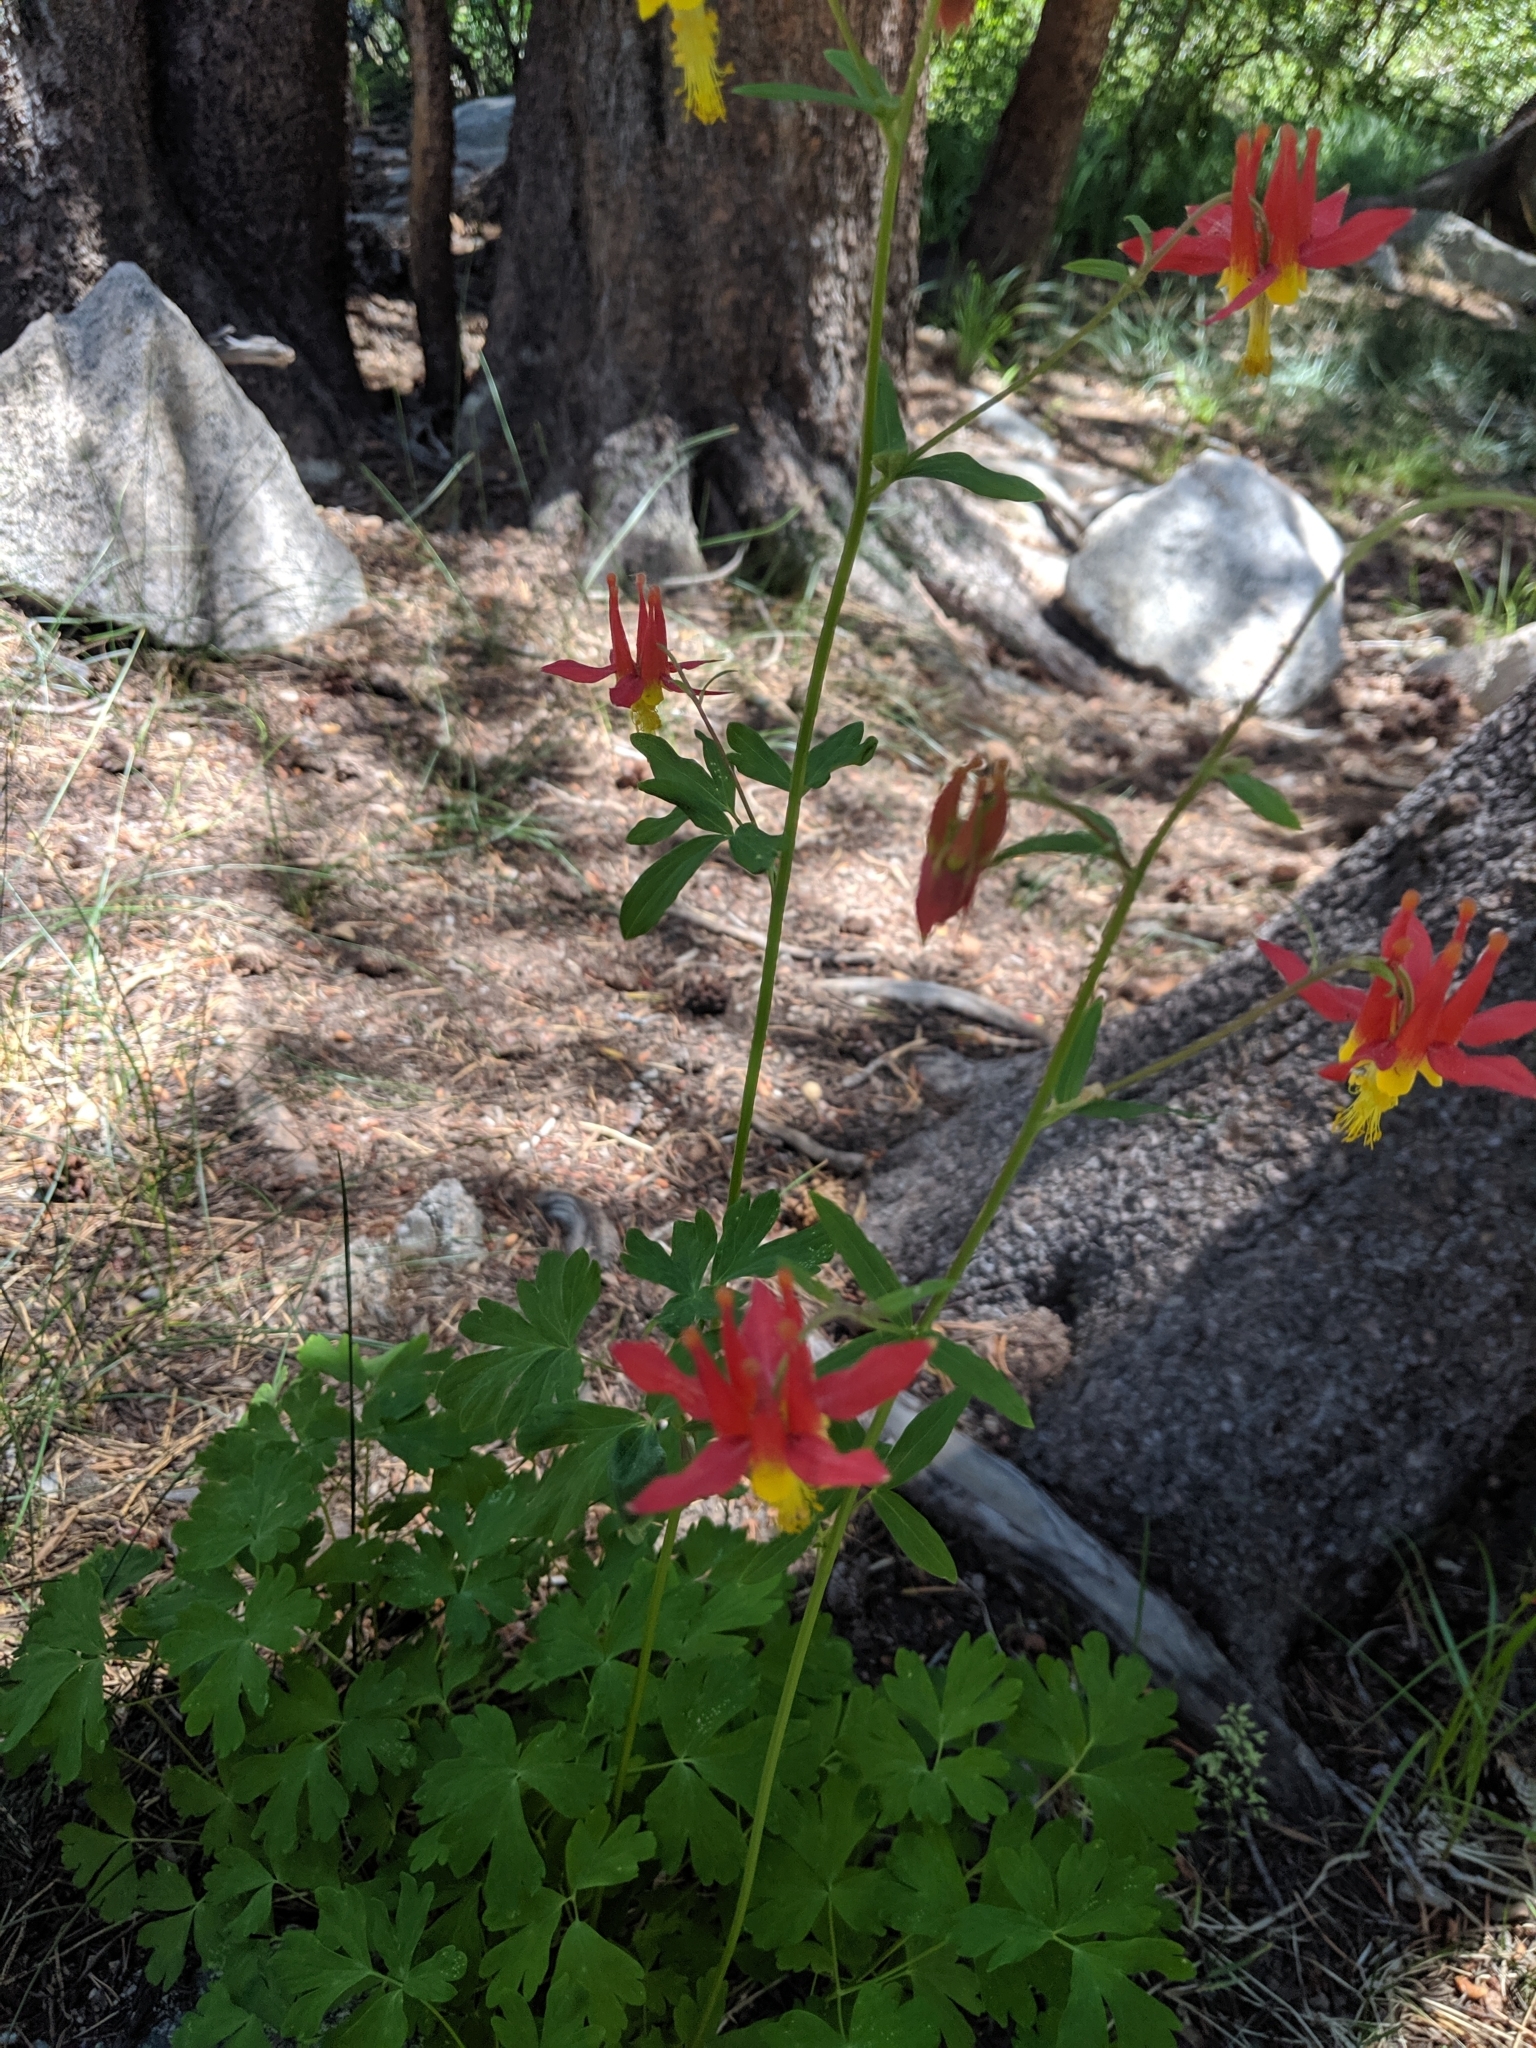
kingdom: Plantae
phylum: Tracheophyta
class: Magnoliopsida
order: Ranunculales
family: Ranunculaceae
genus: Aquilegia
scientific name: Aquilegia formosa
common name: Sitka columbine
